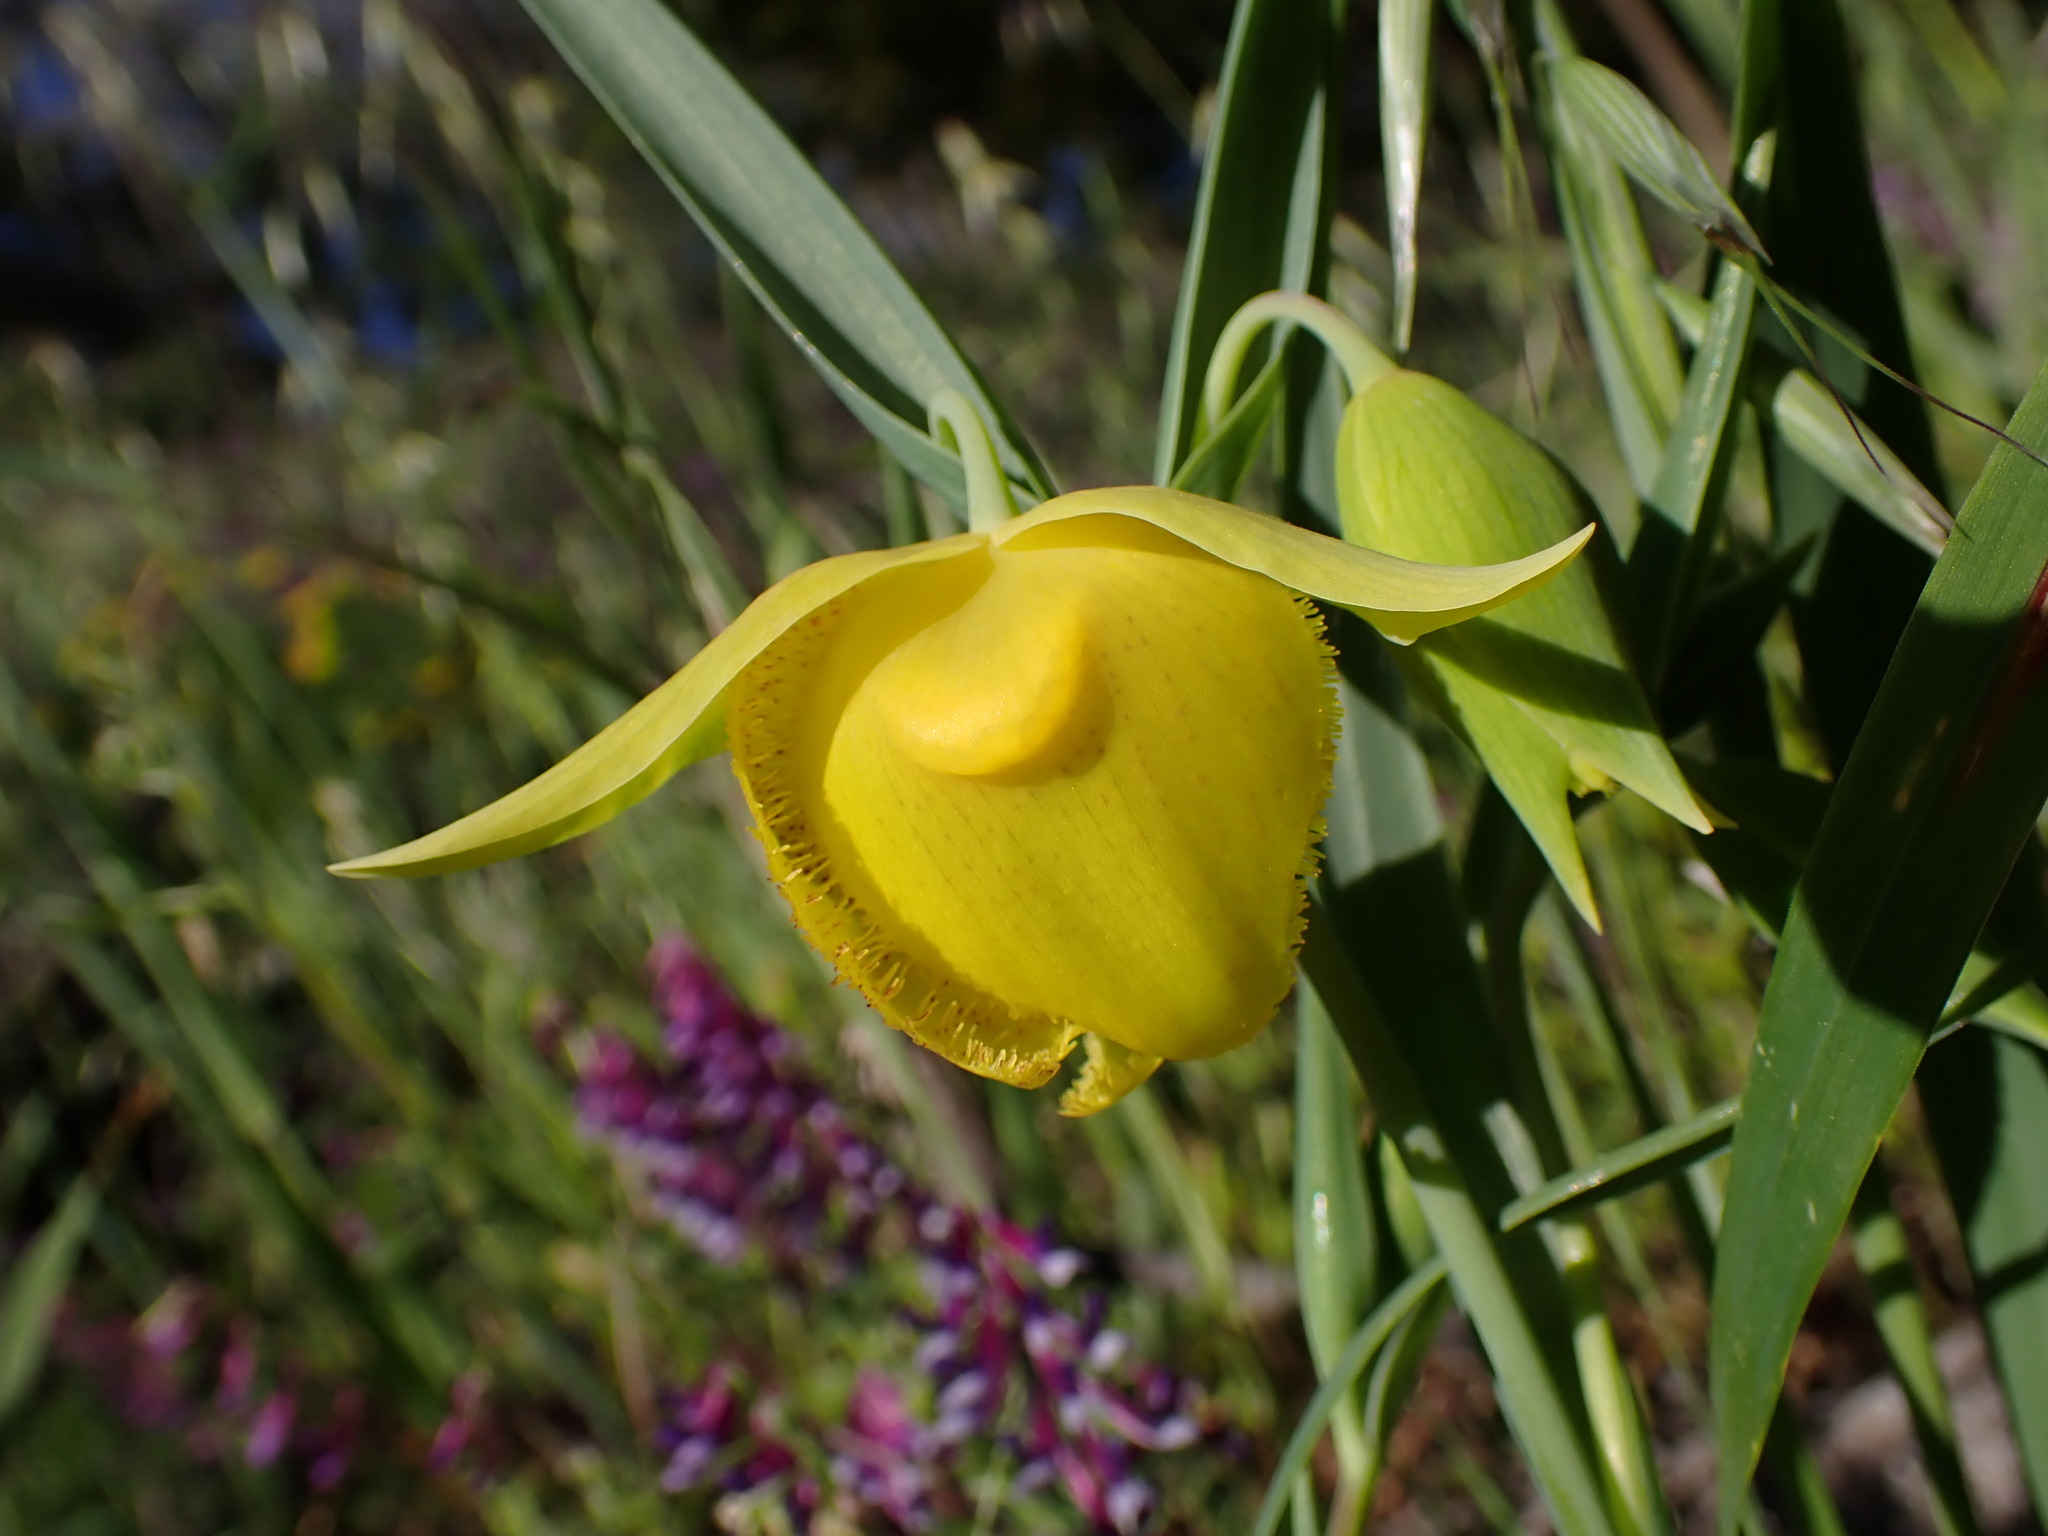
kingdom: Plantae
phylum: Tracheophyta
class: Liliopsida
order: Liliales
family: Liliaceae
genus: Calochortus
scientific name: Calochortus pulchellus
